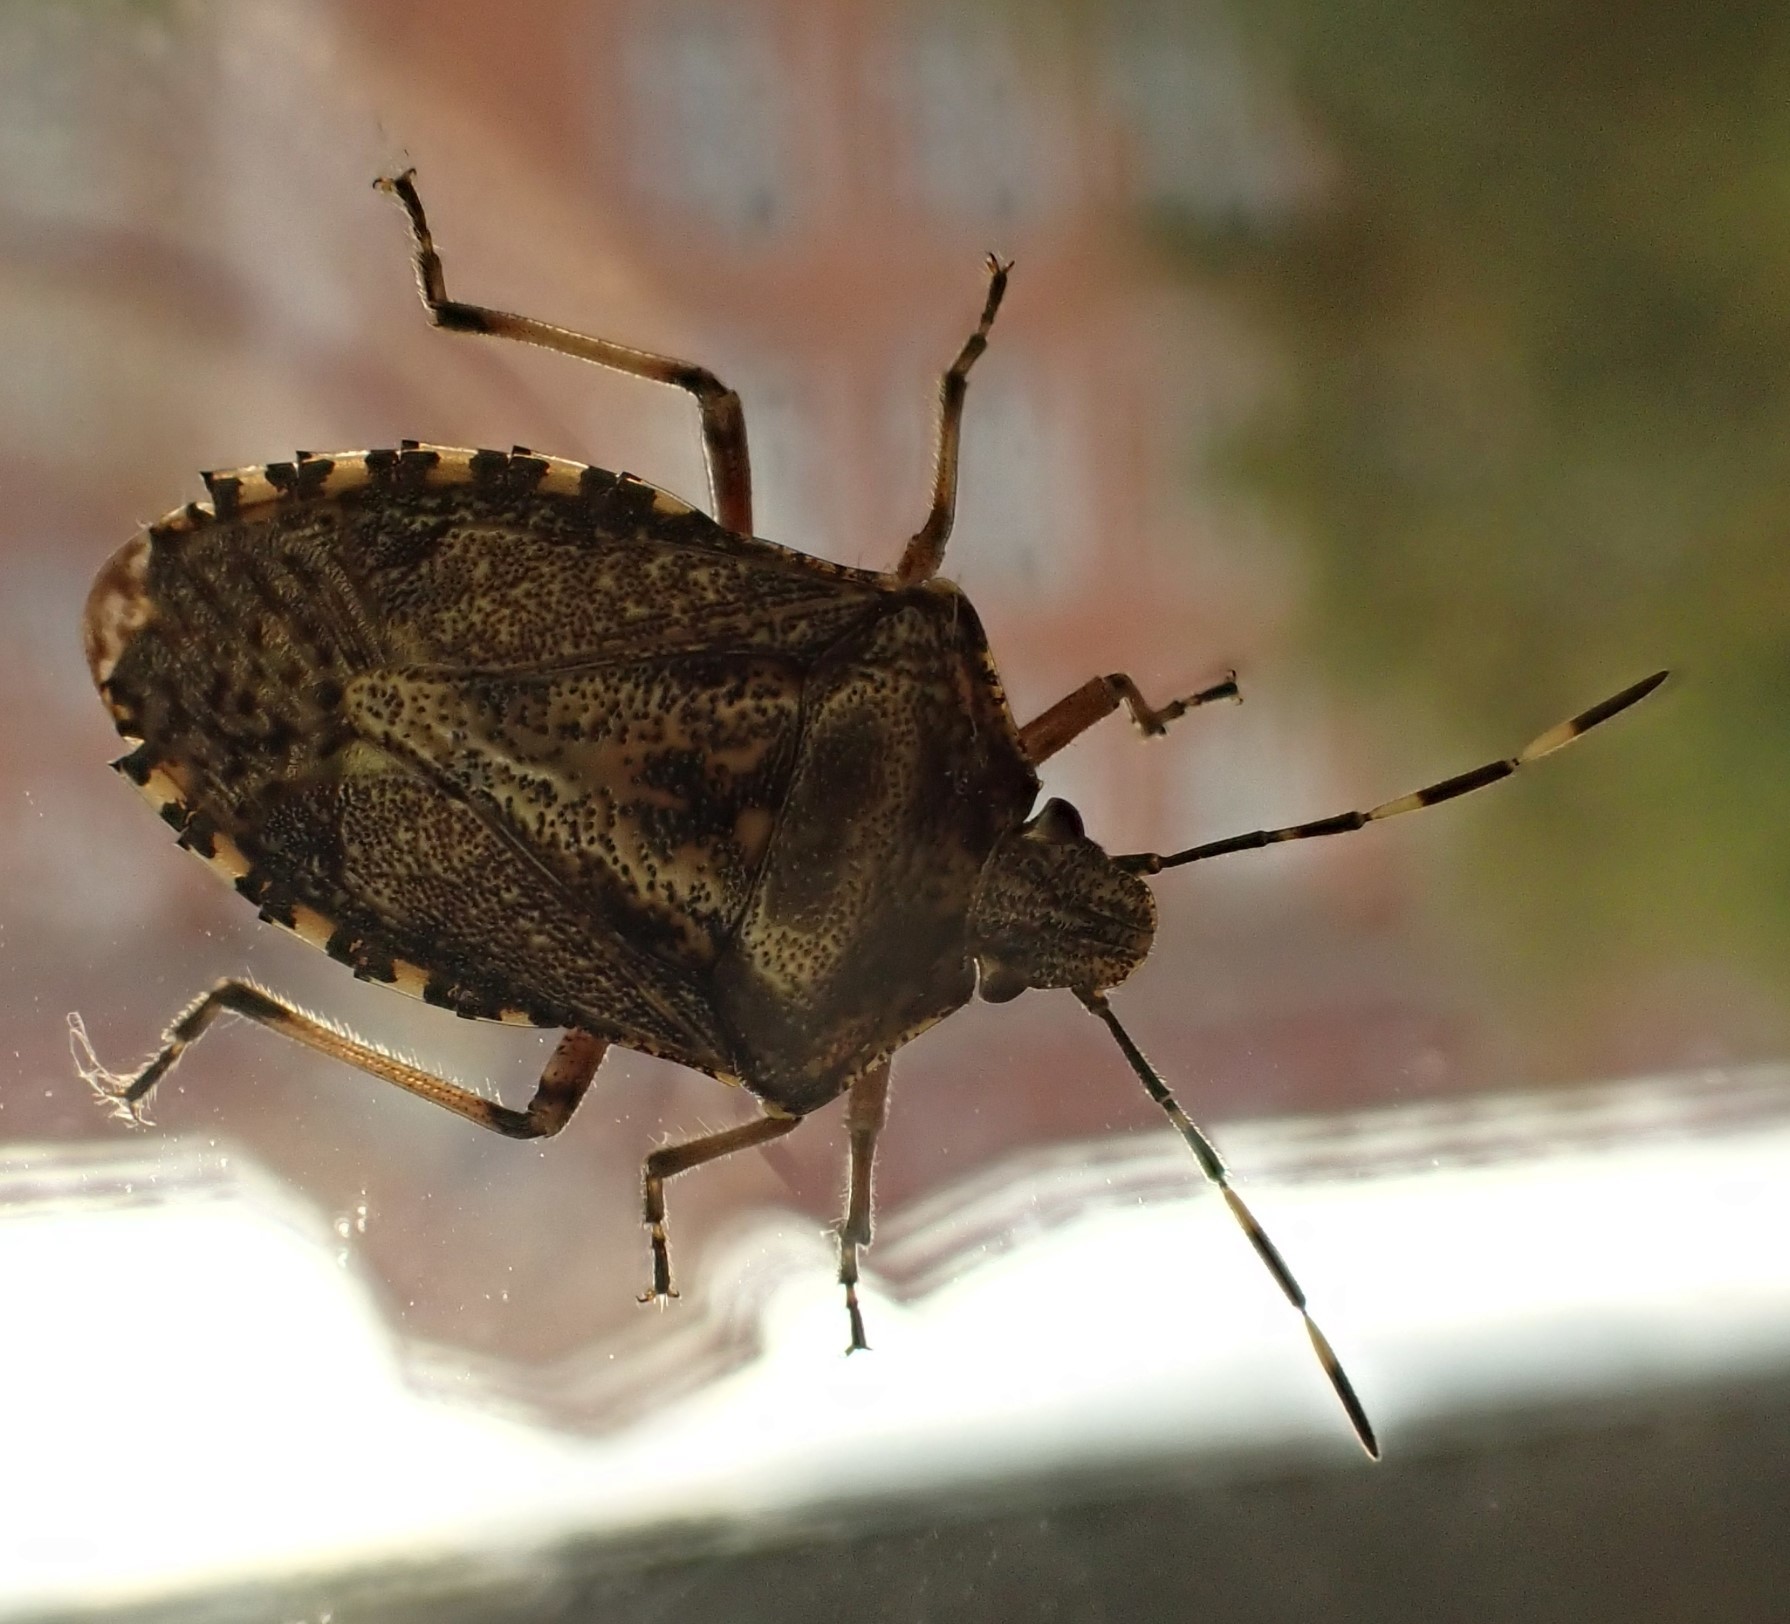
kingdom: Animalia
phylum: Arthropoda
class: Insecta
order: Hemiptera
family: Pentatomidae
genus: Rhaphigaster
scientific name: Rhaphigaster nebulosa
